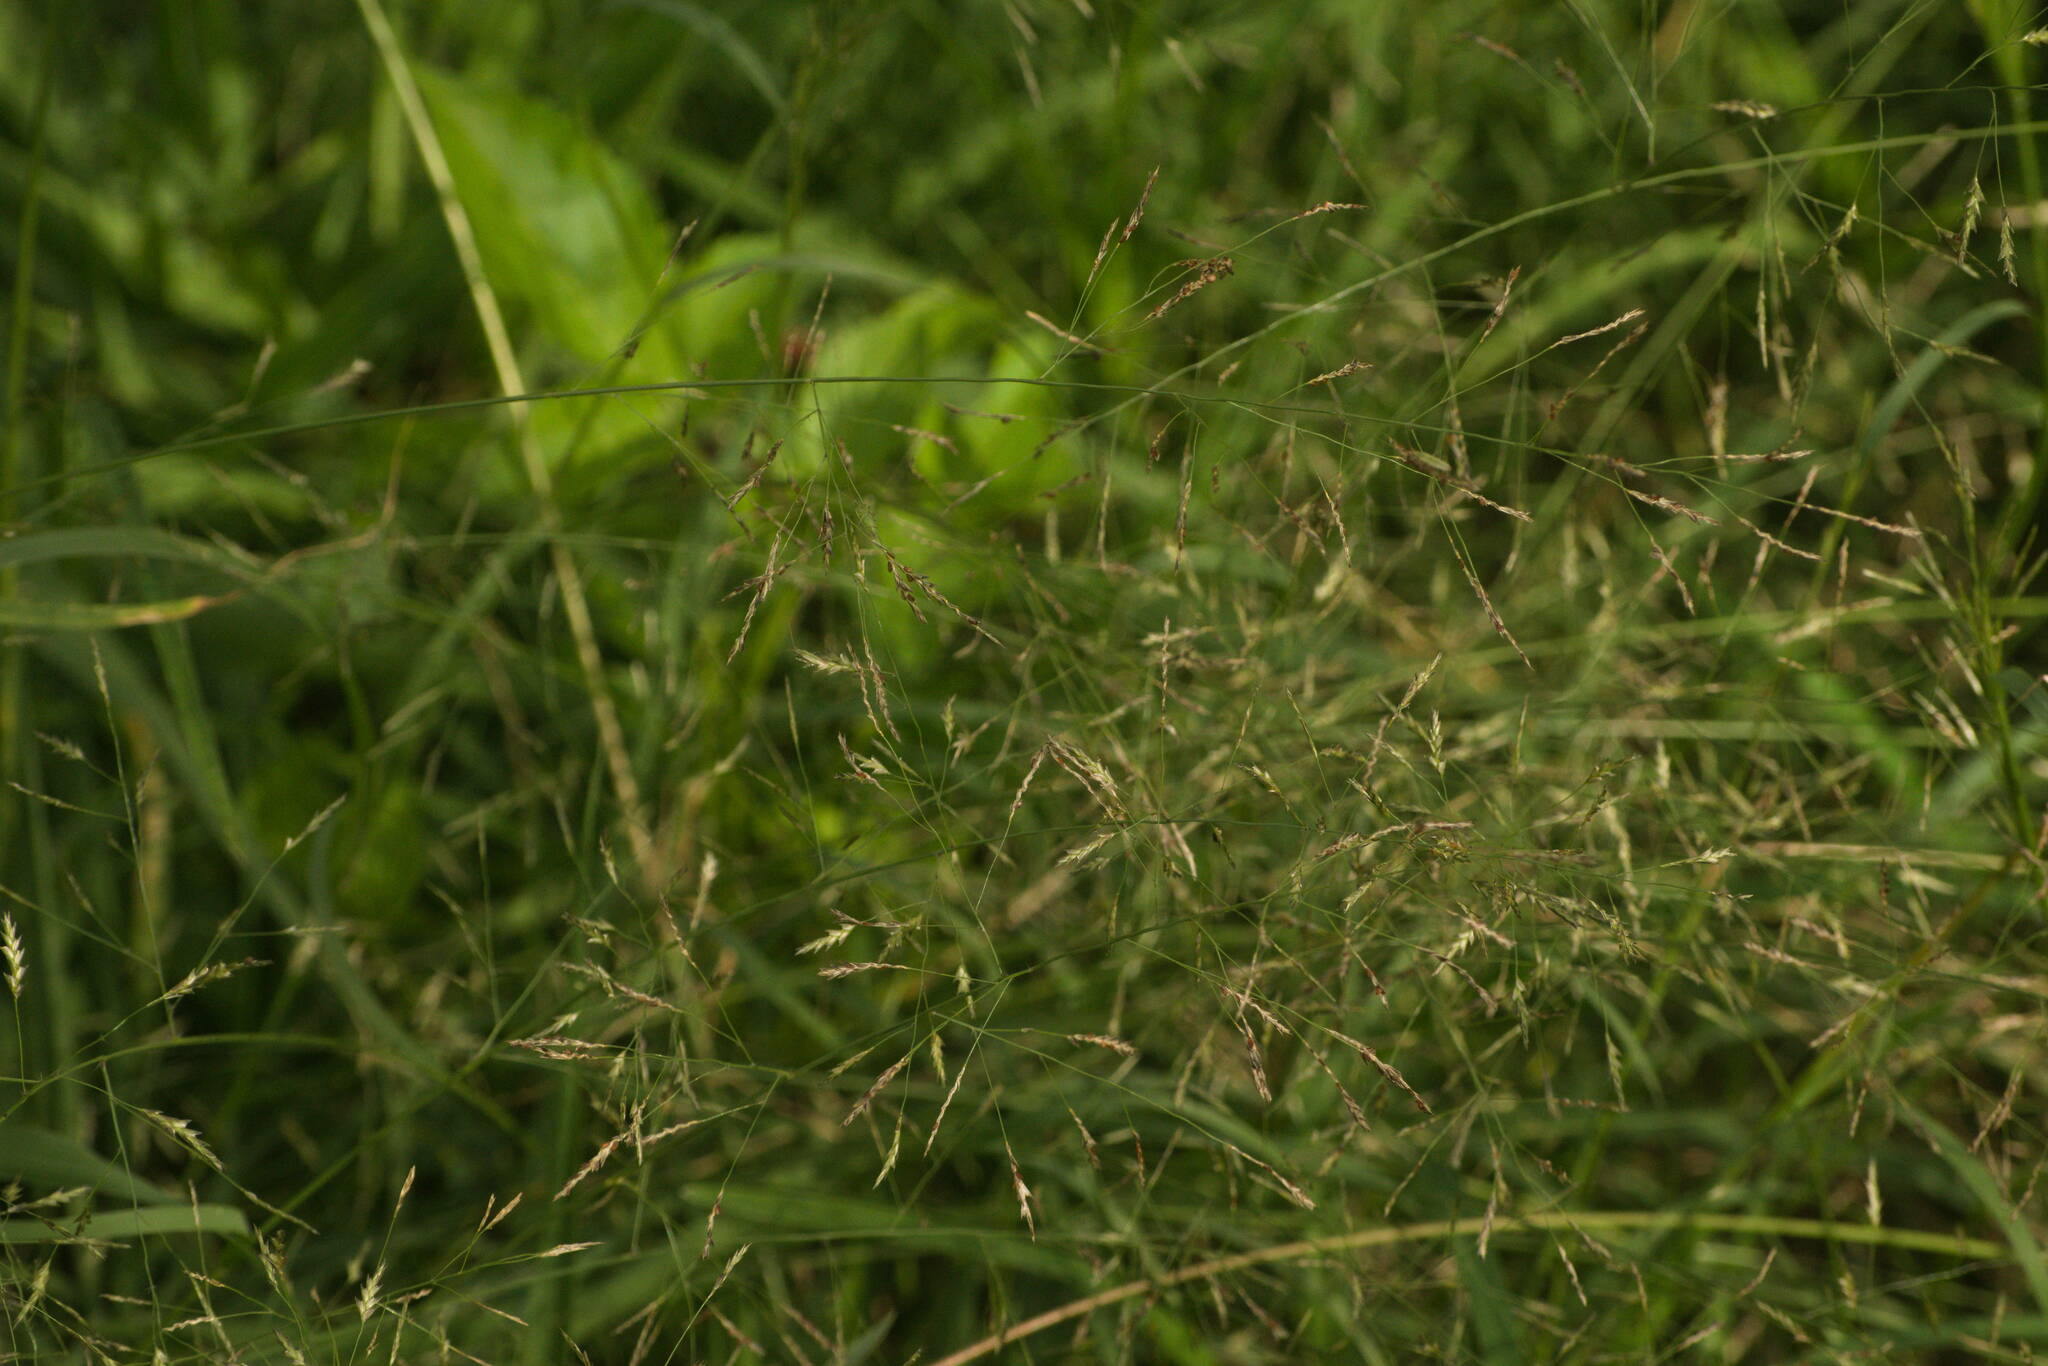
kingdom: Plantae
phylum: Tracheophyta
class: Liliopsida
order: Poales
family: Poaceae
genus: Eragrostis
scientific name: Eragrostis tenuifolia
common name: Elastic grass
